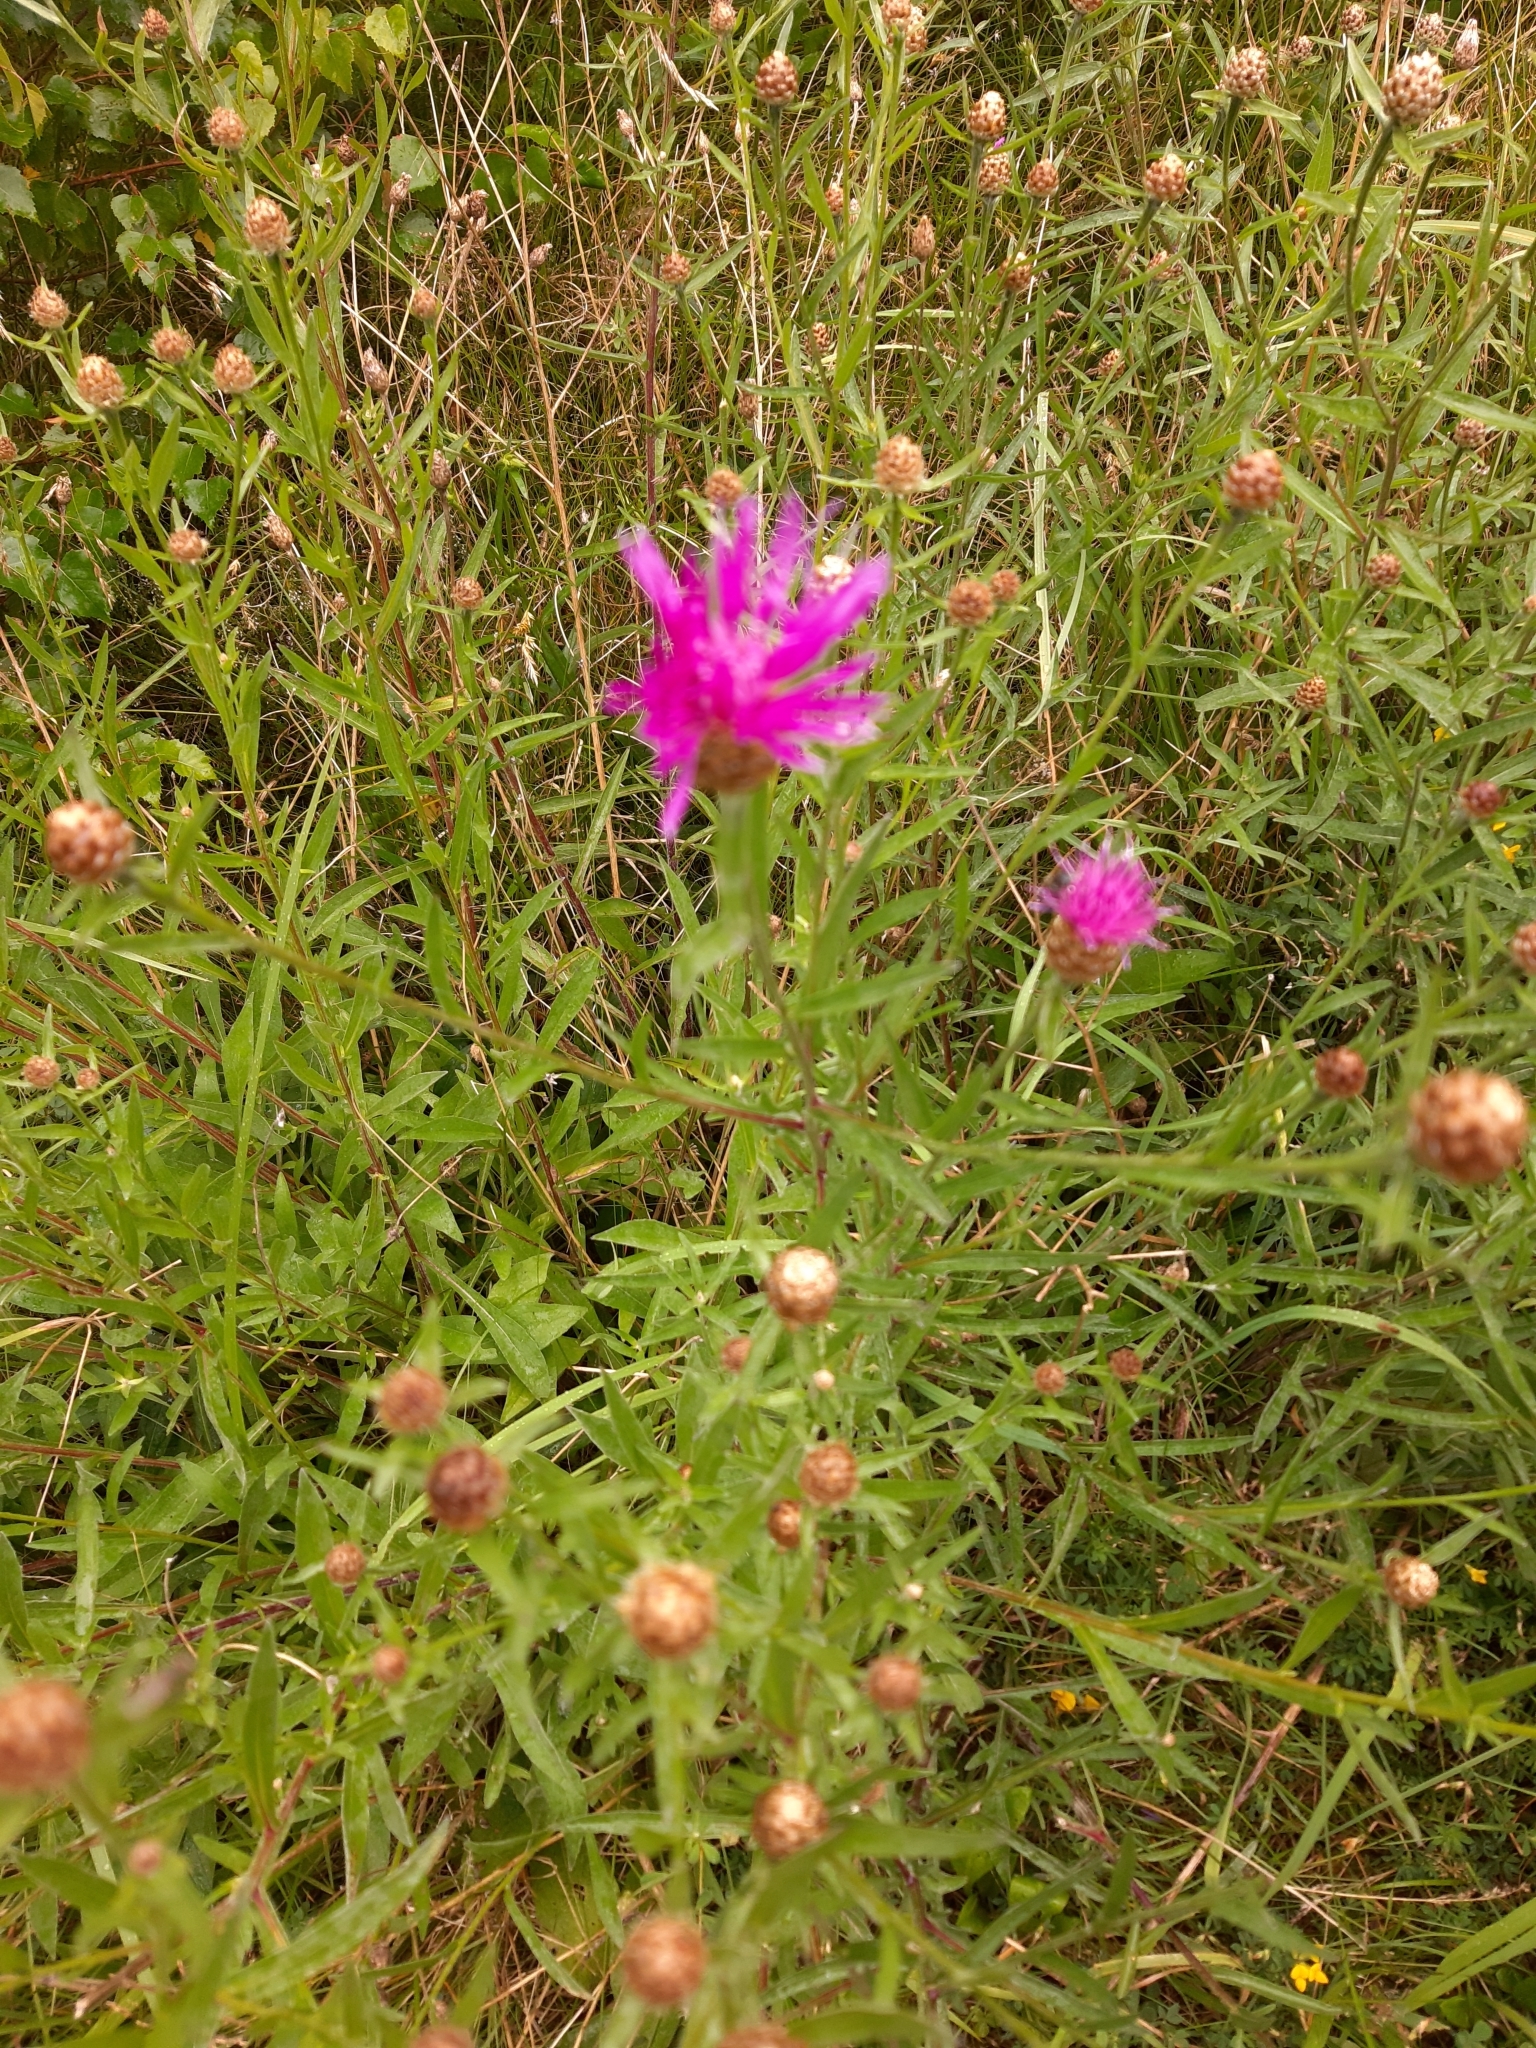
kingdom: Plantae
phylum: Tracheophyta
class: Magnoliopsida
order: Asterales
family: Asteraceae
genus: Centaurea
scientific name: Centaurea jacea
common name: Brown knapweed
